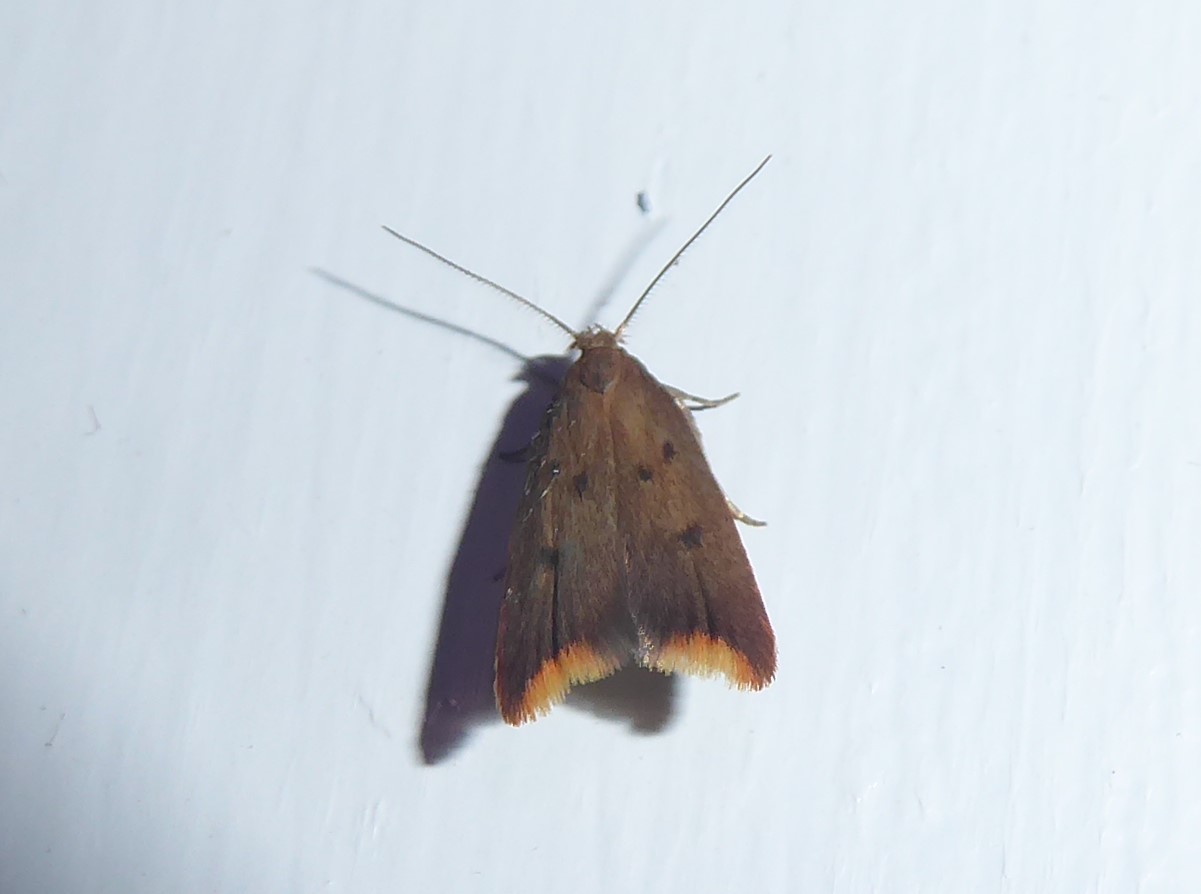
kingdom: Animalia
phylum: Arthropoda
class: Insecta
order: Lepidoptera
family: Oecophoridae
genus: Tachystola
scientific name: Tachystola acroxantha
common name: Ruddy streak
